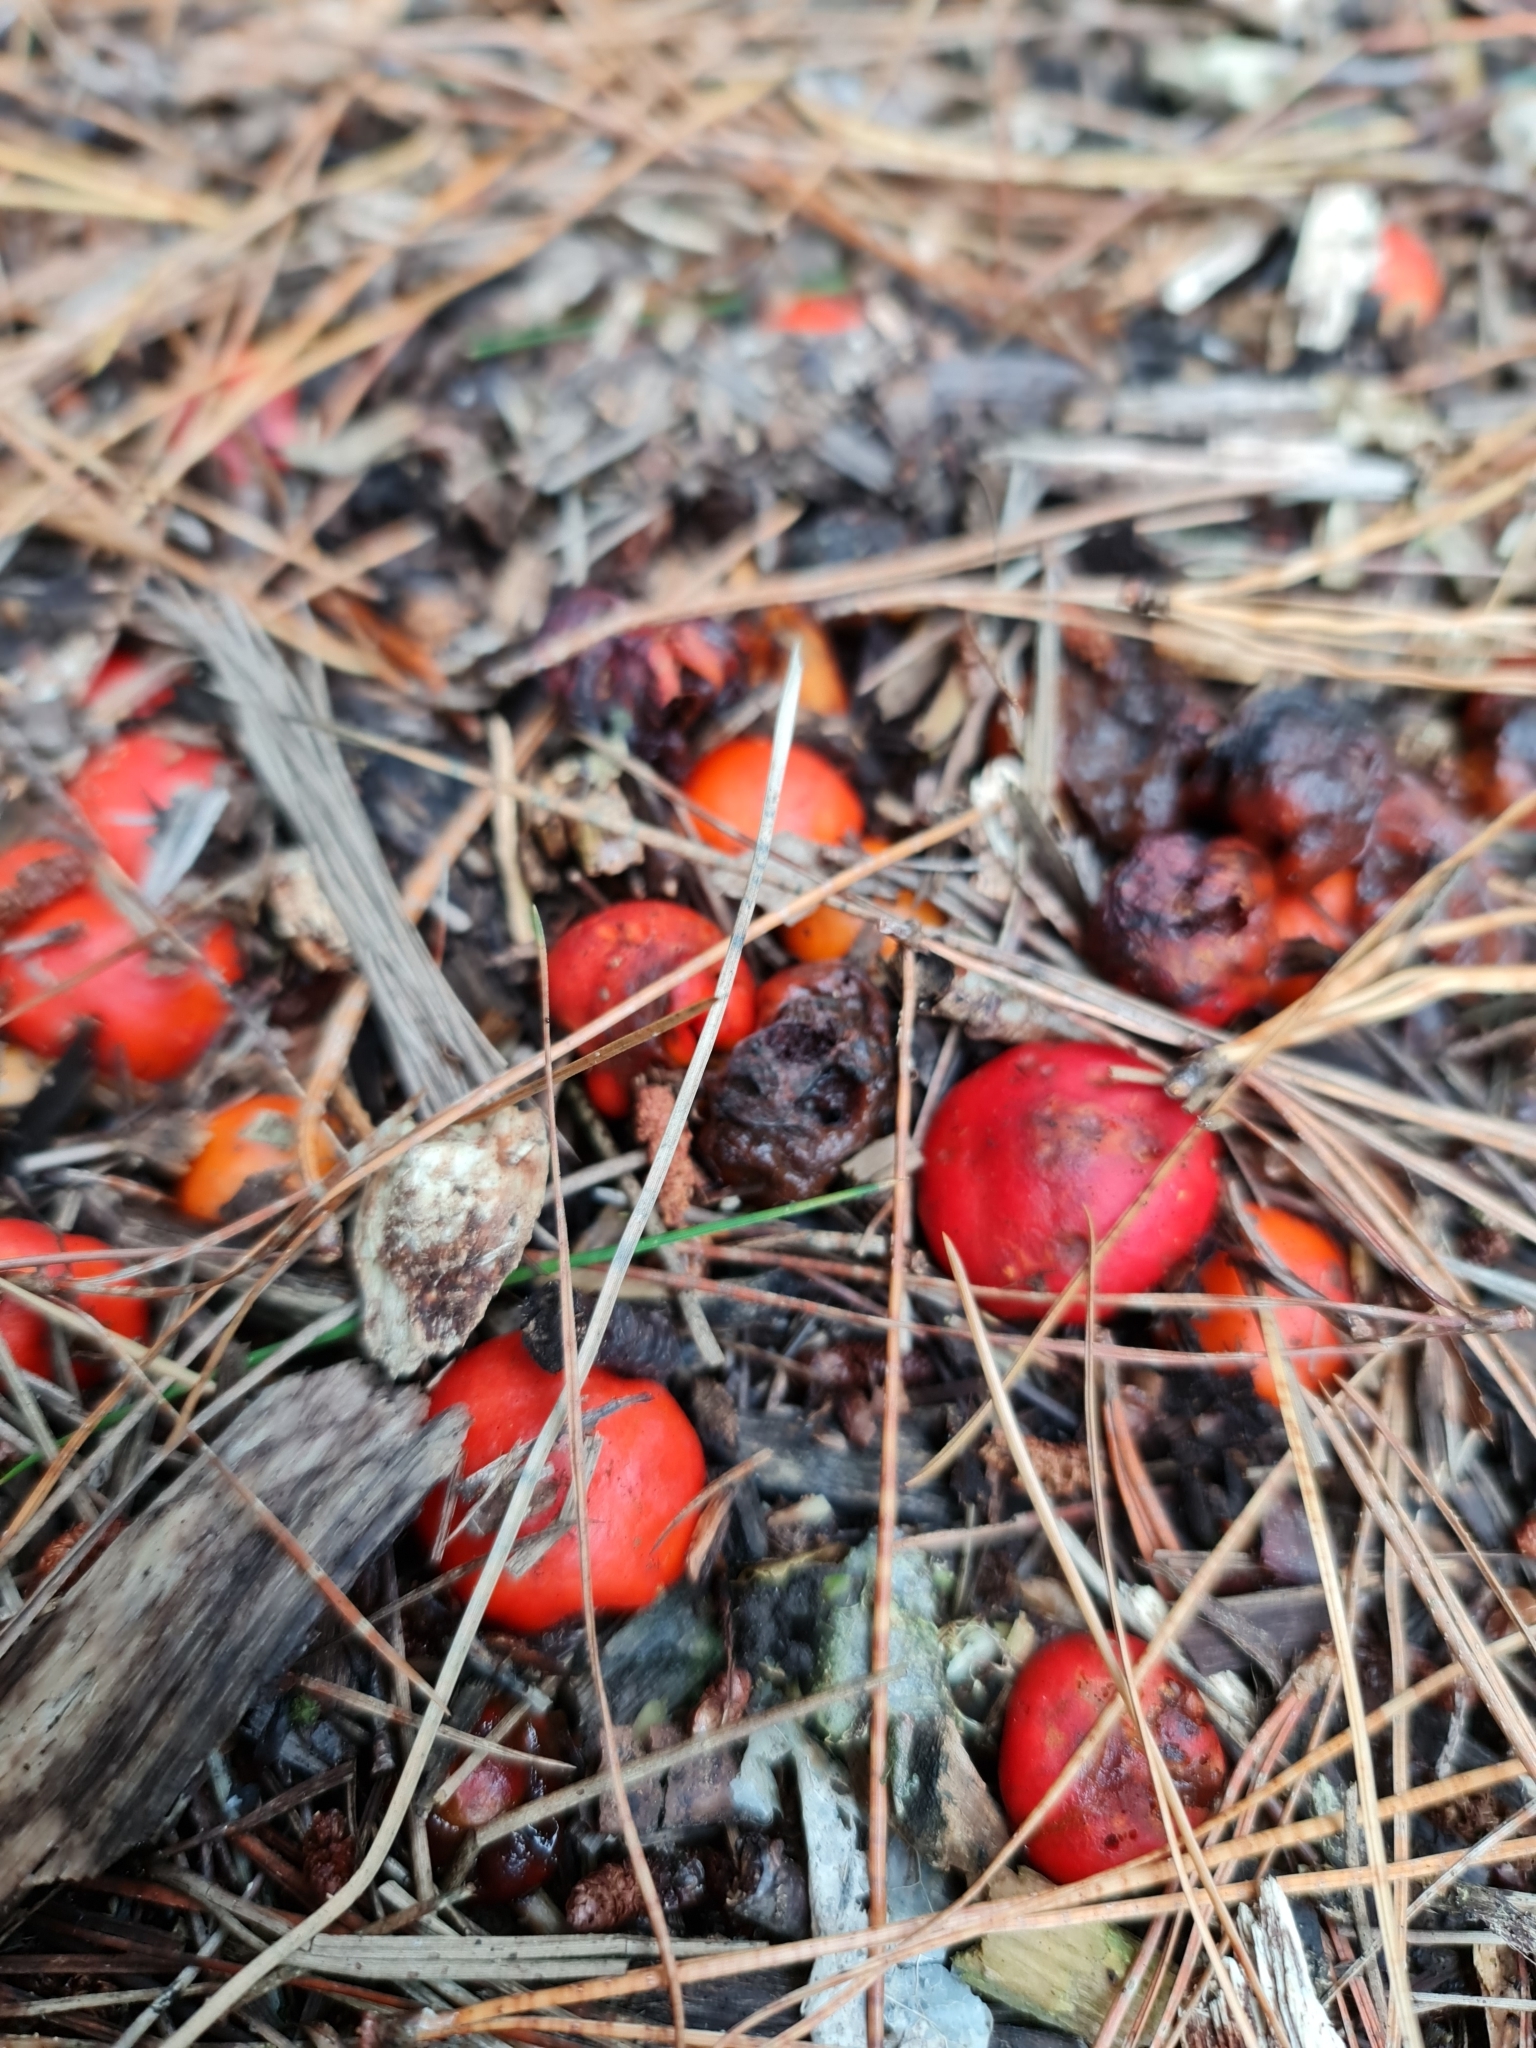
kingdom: Fungi
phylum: Basidiomycota
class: Agaricomycetes
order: Agaricales
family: Strophariaceae
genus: Leratiomyces
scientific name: Leratiomyces erythrocephalus
